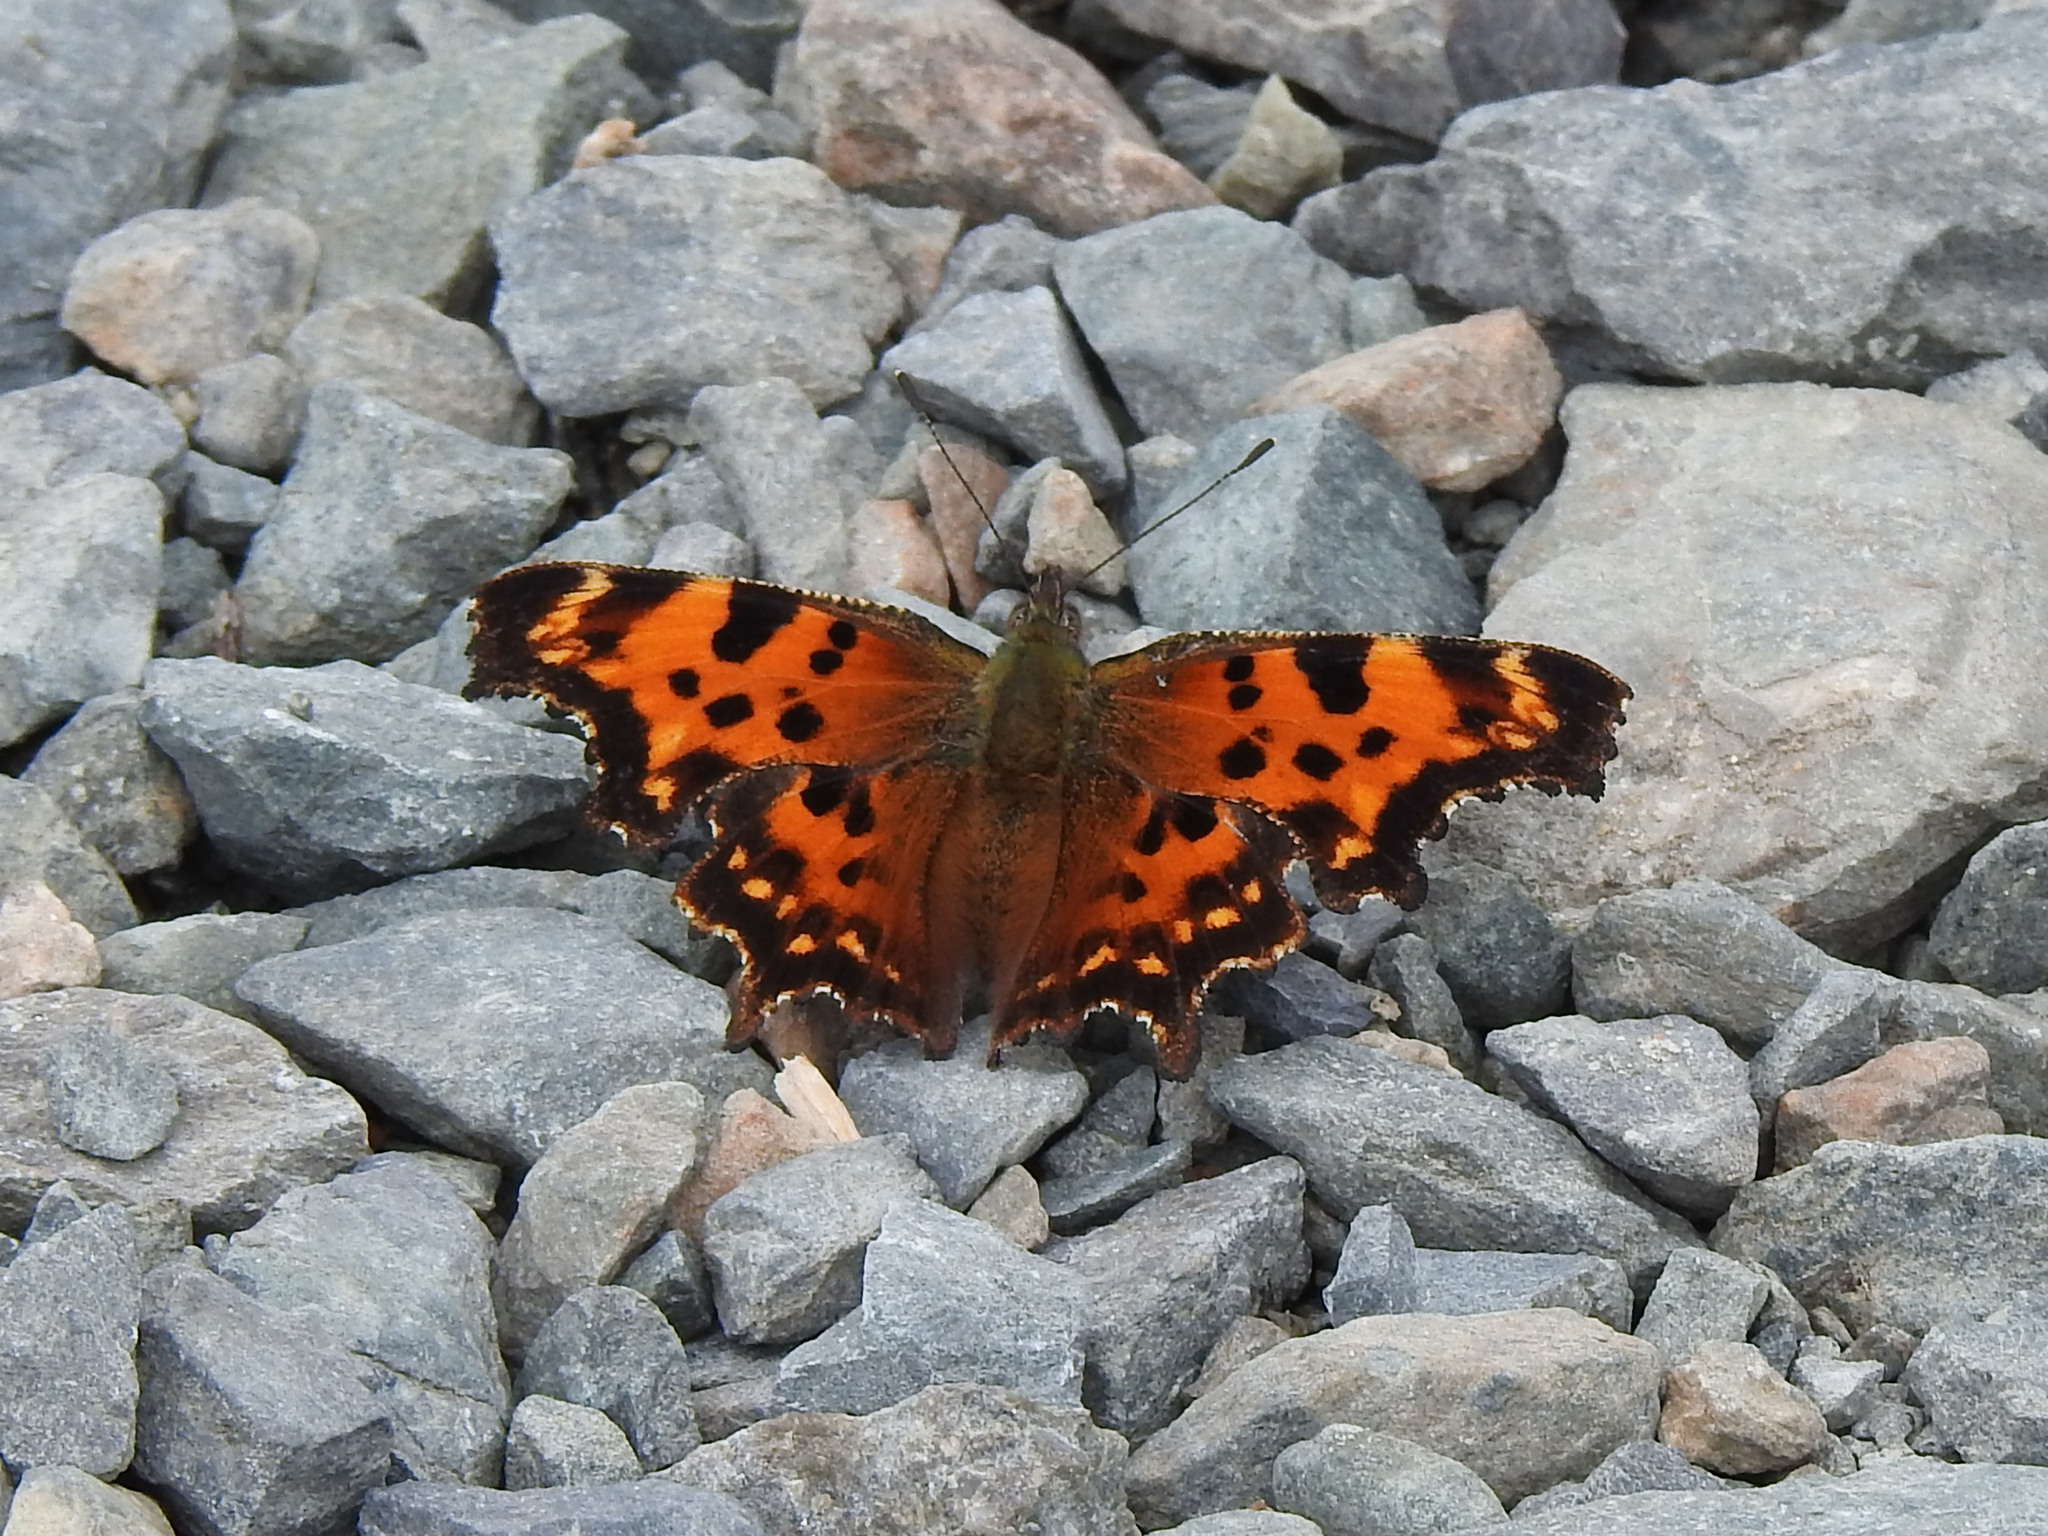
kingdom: Animalia
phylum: Arthropoda
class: Insecta
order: Lepidoptera
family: Nymphalidae
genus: Polygonia
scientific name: Polygonia faunus
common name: Green comma
